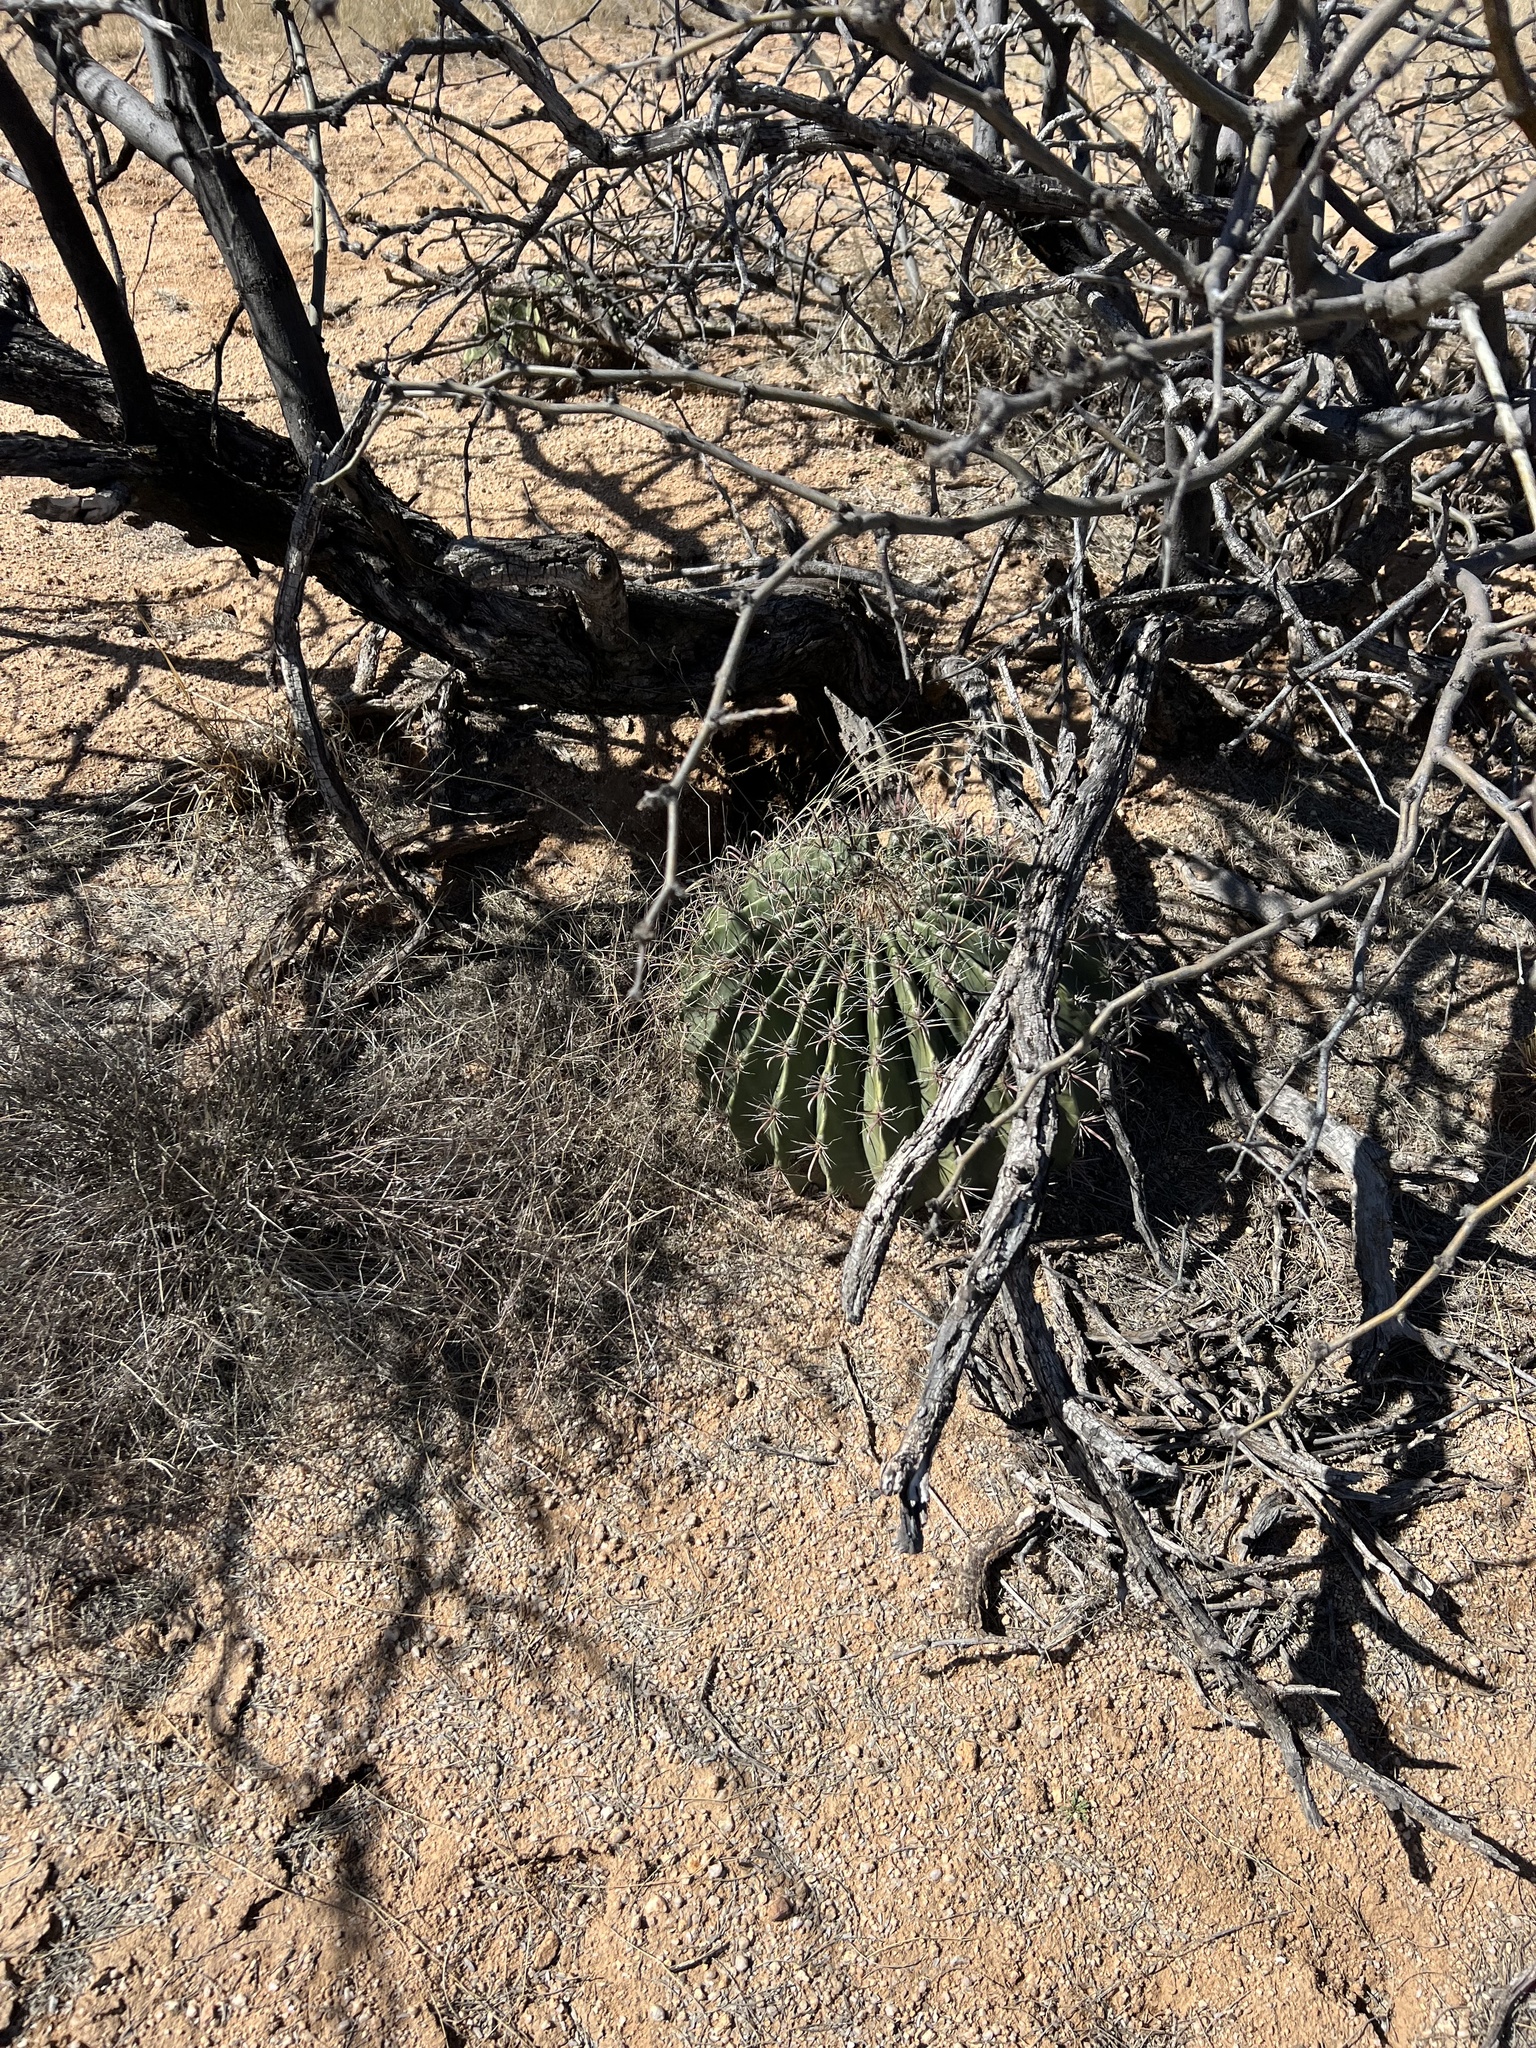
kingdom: Plantae
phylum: Tracheophyta
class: Magnoliopsida
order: Caryophyllales
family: Cactaceae
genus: Ferocactus
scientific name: Ferocactus wislizeni
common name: Candy barrel cactus
